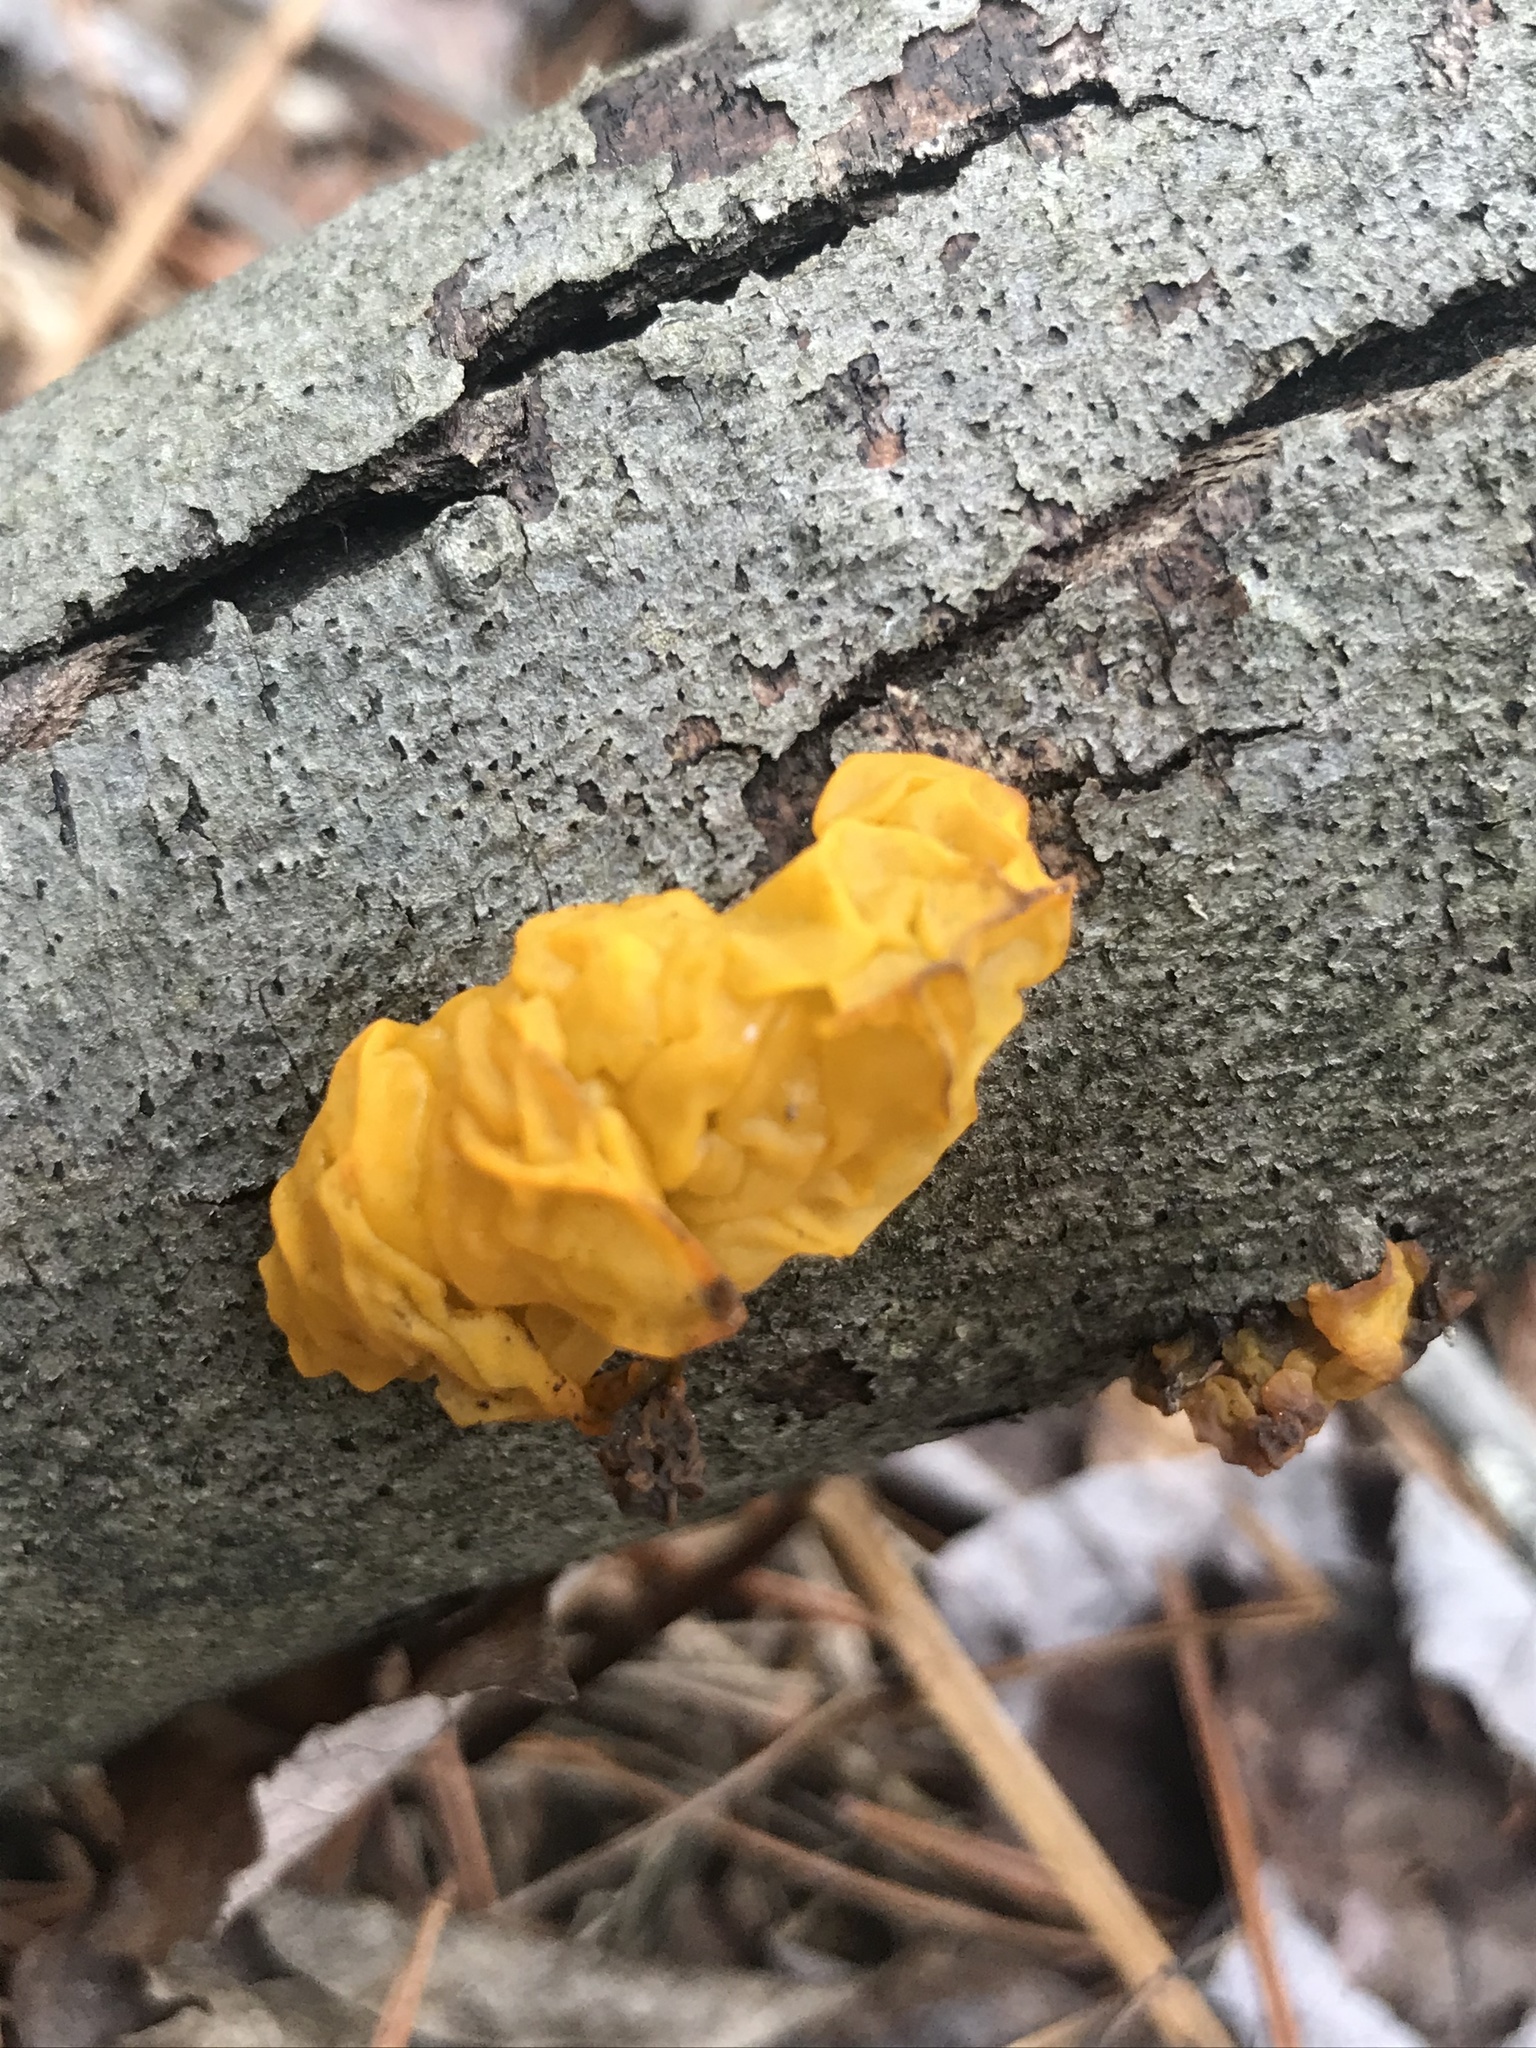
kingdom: Fungi
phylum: Basidiomycota
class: Tremellomycetes
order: Tremellales
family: Tremellaceae
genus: Tremella
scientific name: Tremella mesenterica
